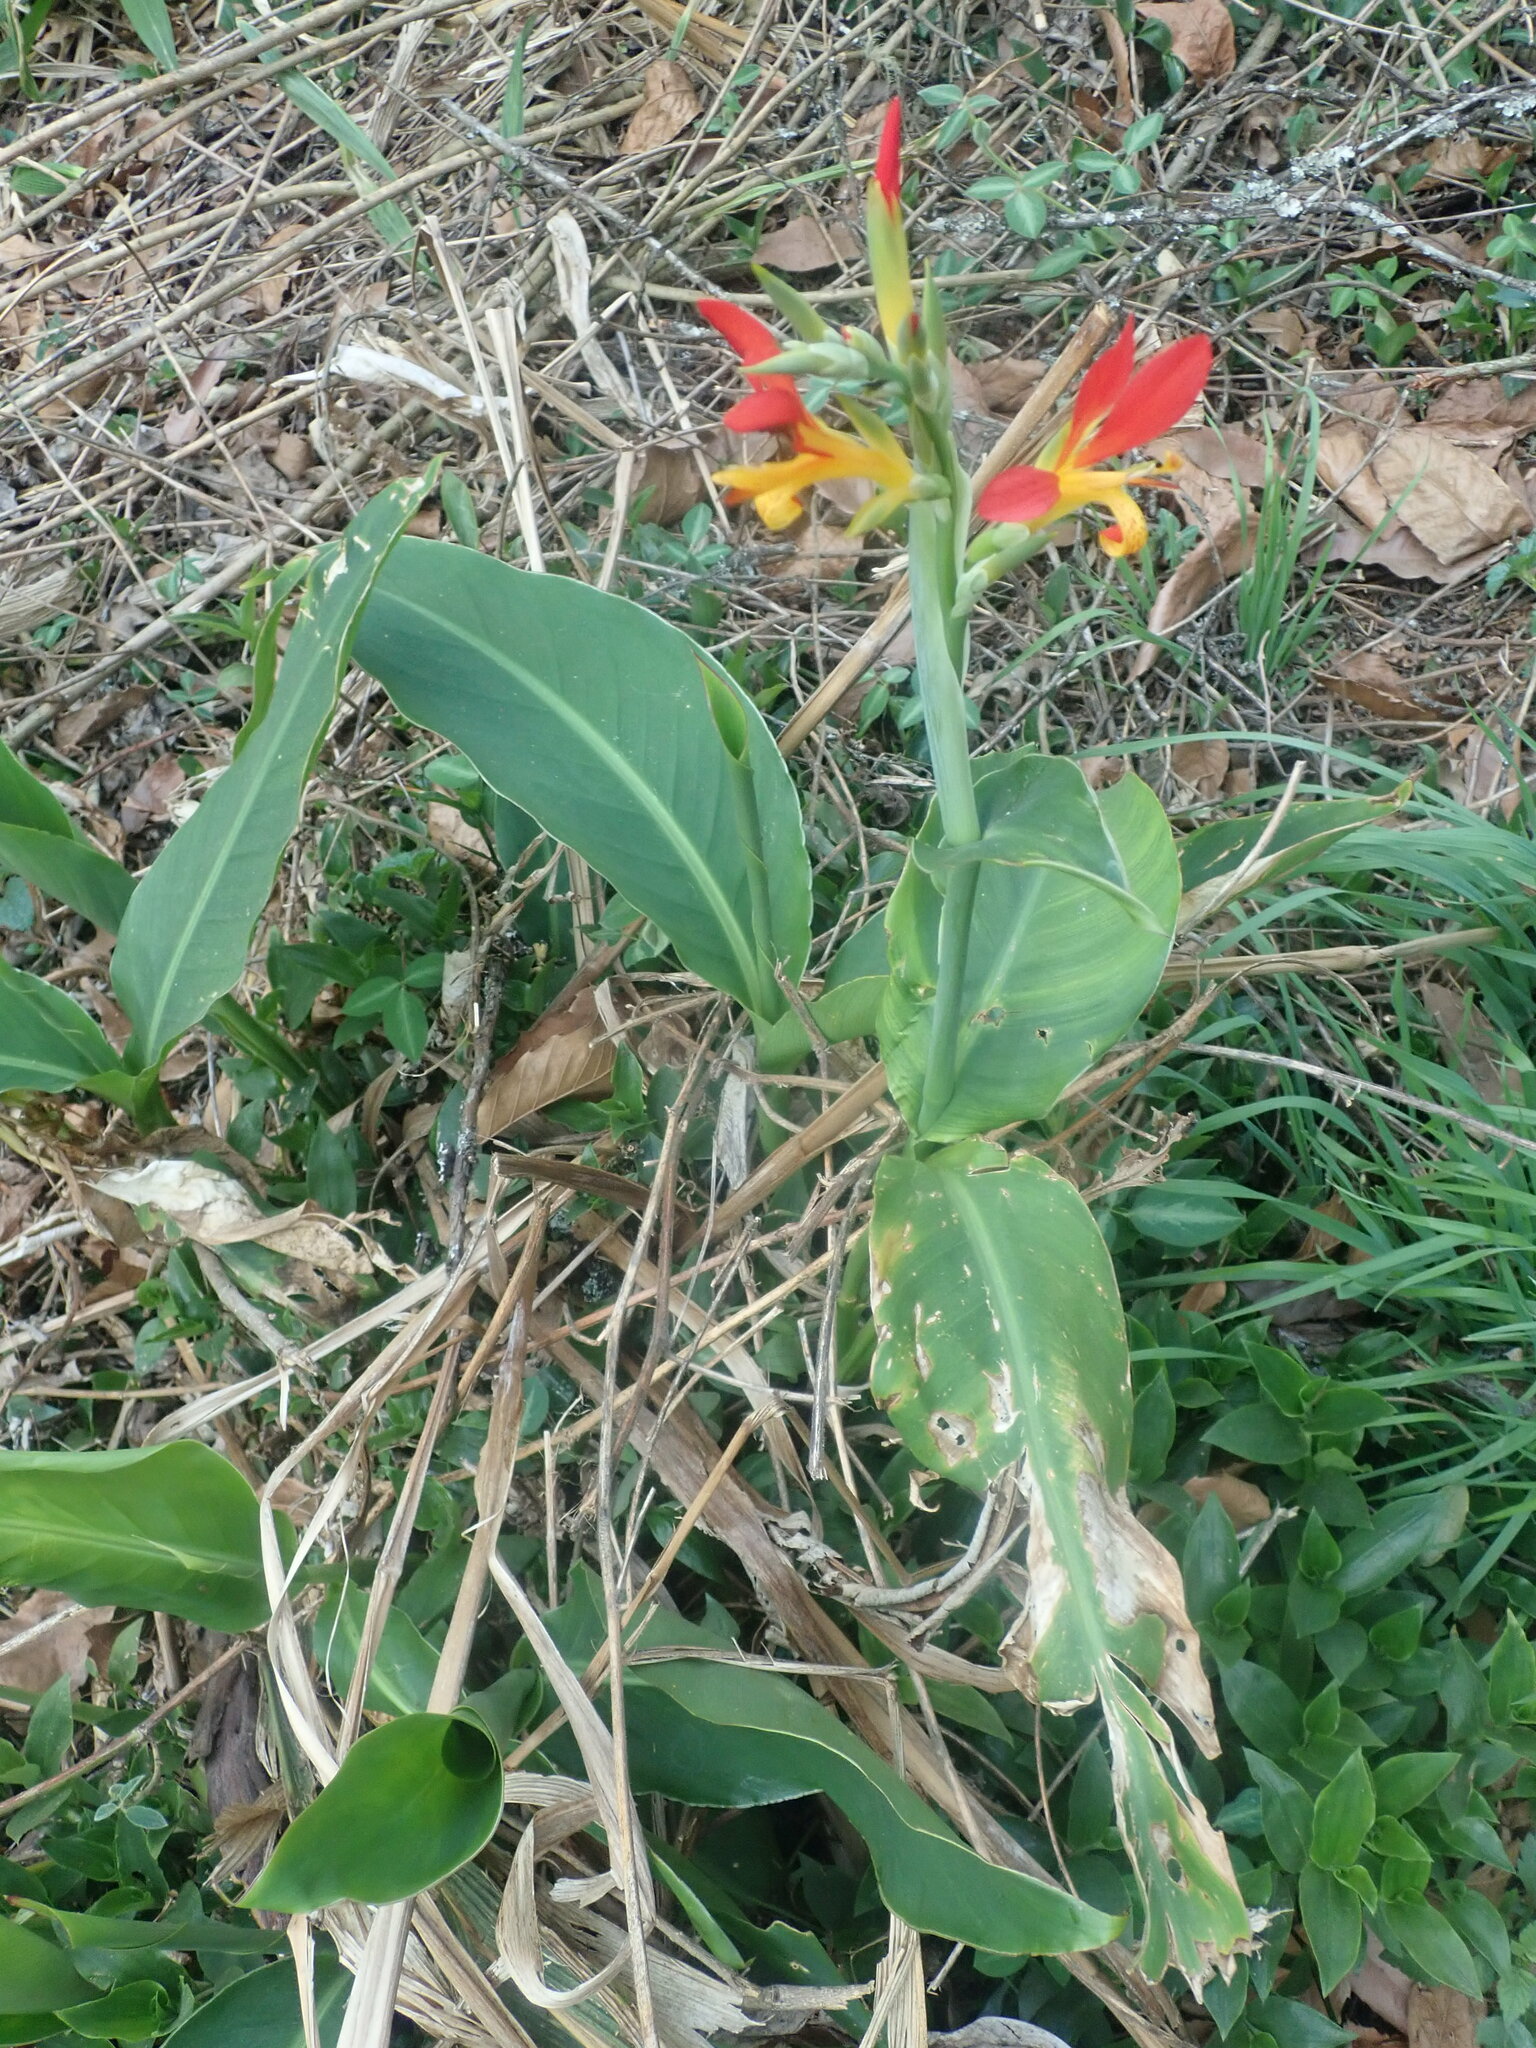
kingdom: Plantae
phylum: Tracheophyta
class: Liliopsida
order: Zingiberales
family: Cannaceae
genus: Canna
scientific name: Canna indica
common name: Indian shot
